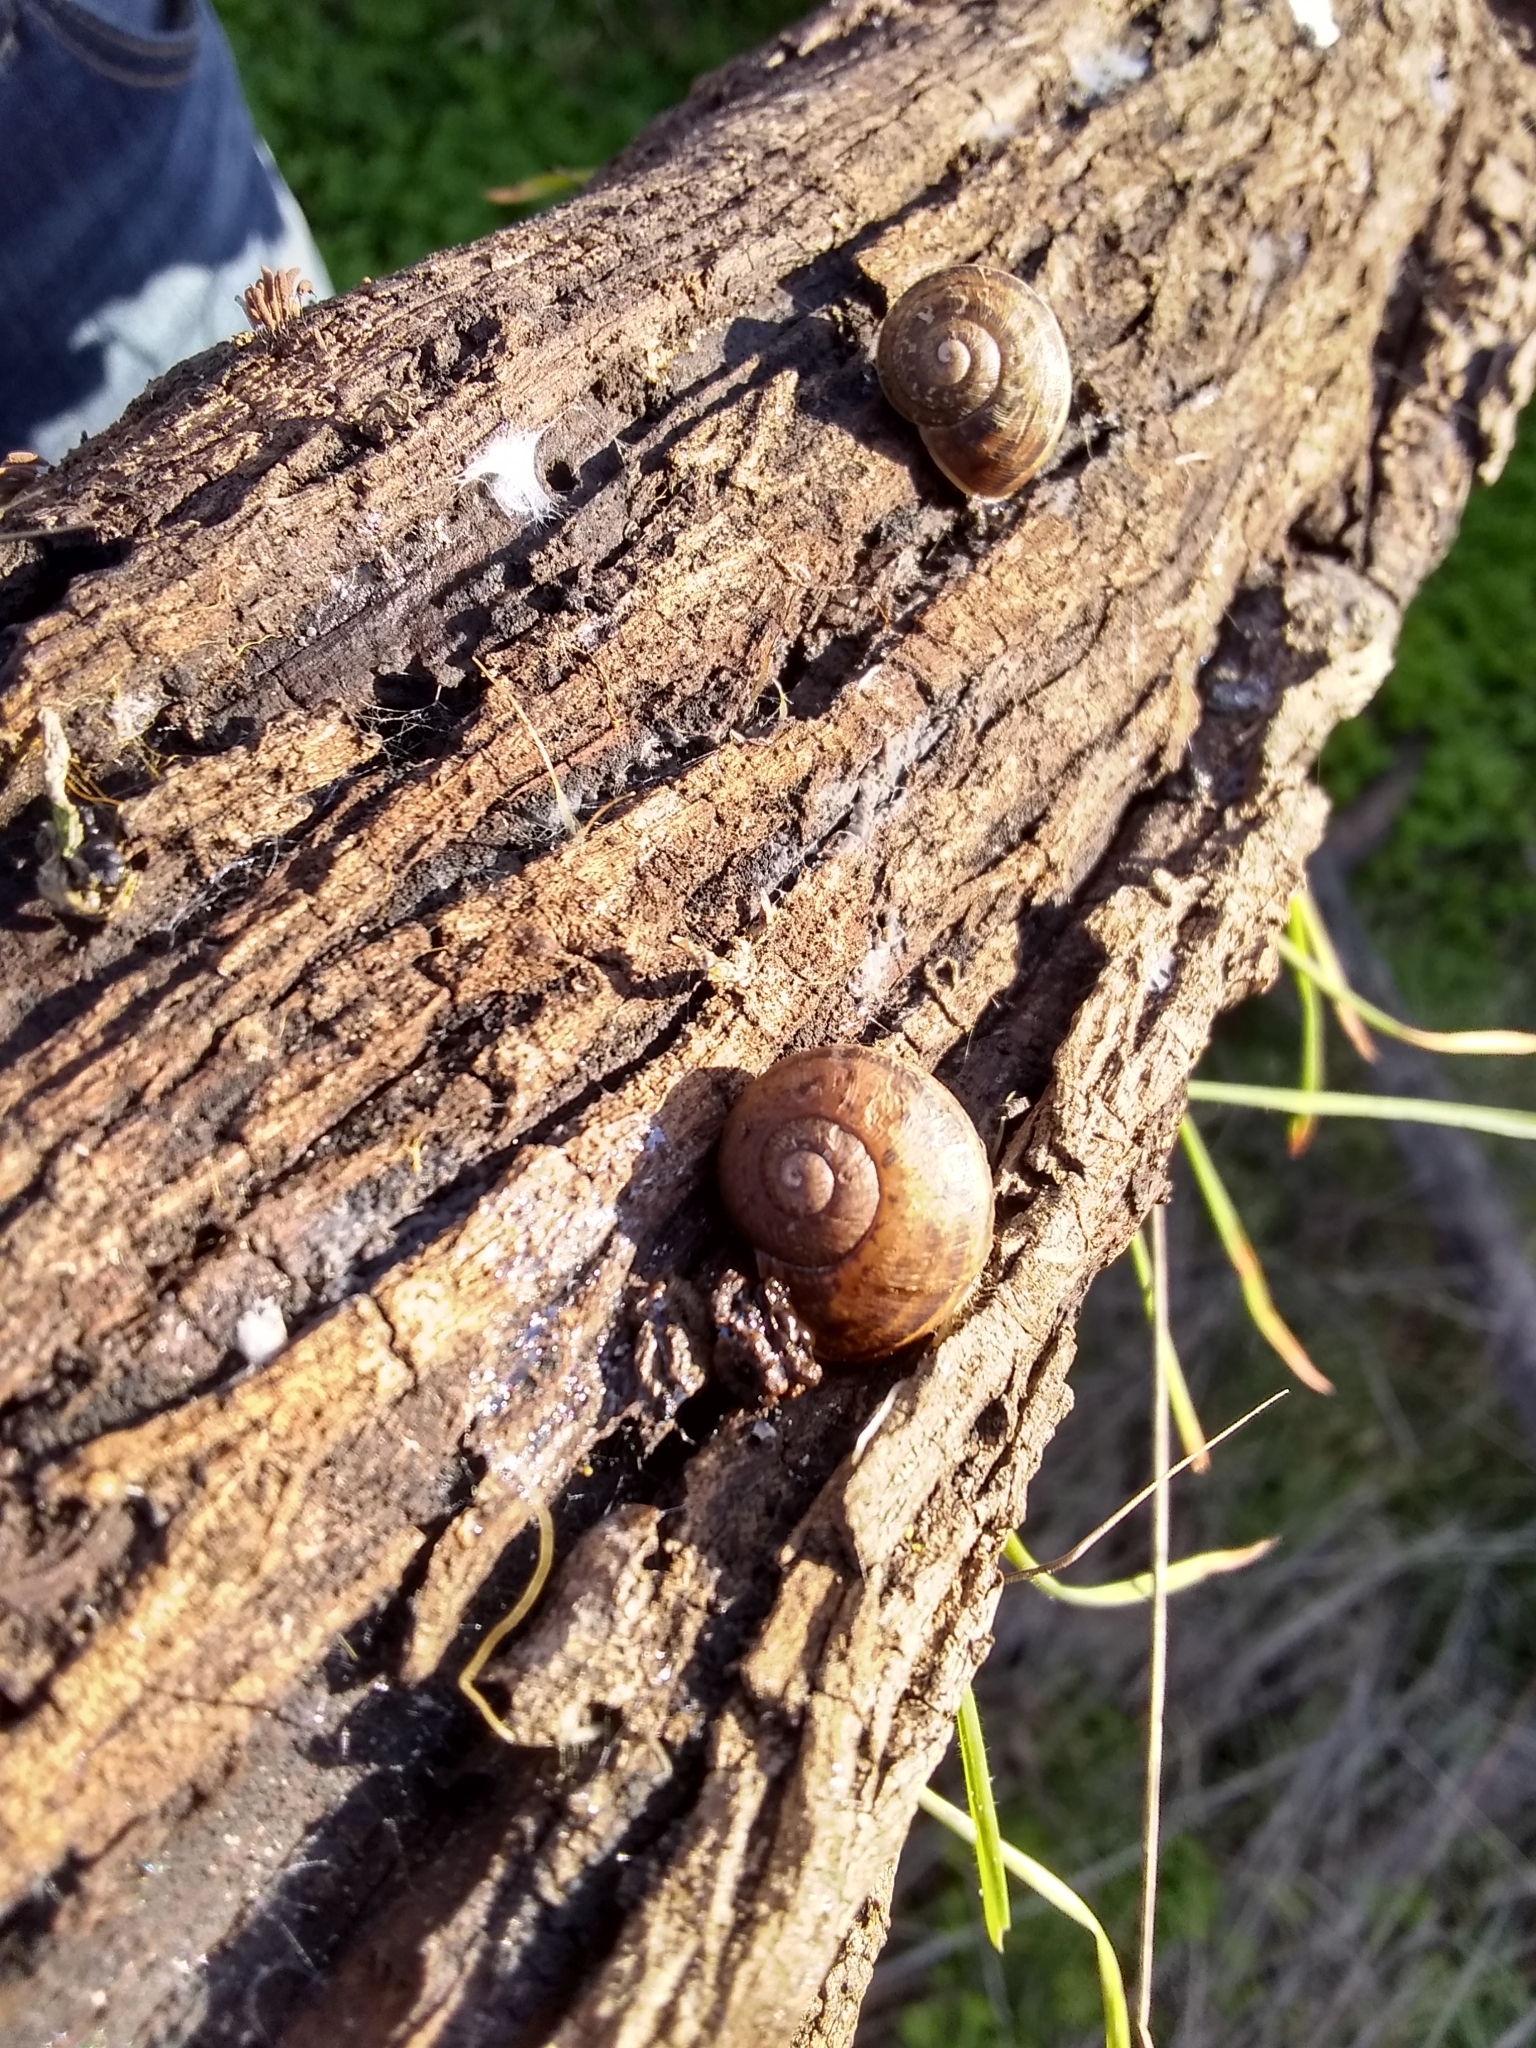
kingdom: Animalia
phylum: Mollusca
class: Gastropoda
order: Stylommatophora
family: Helicidae
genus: Cornu
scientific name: Cornu aspersum
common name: Brown garden snail
